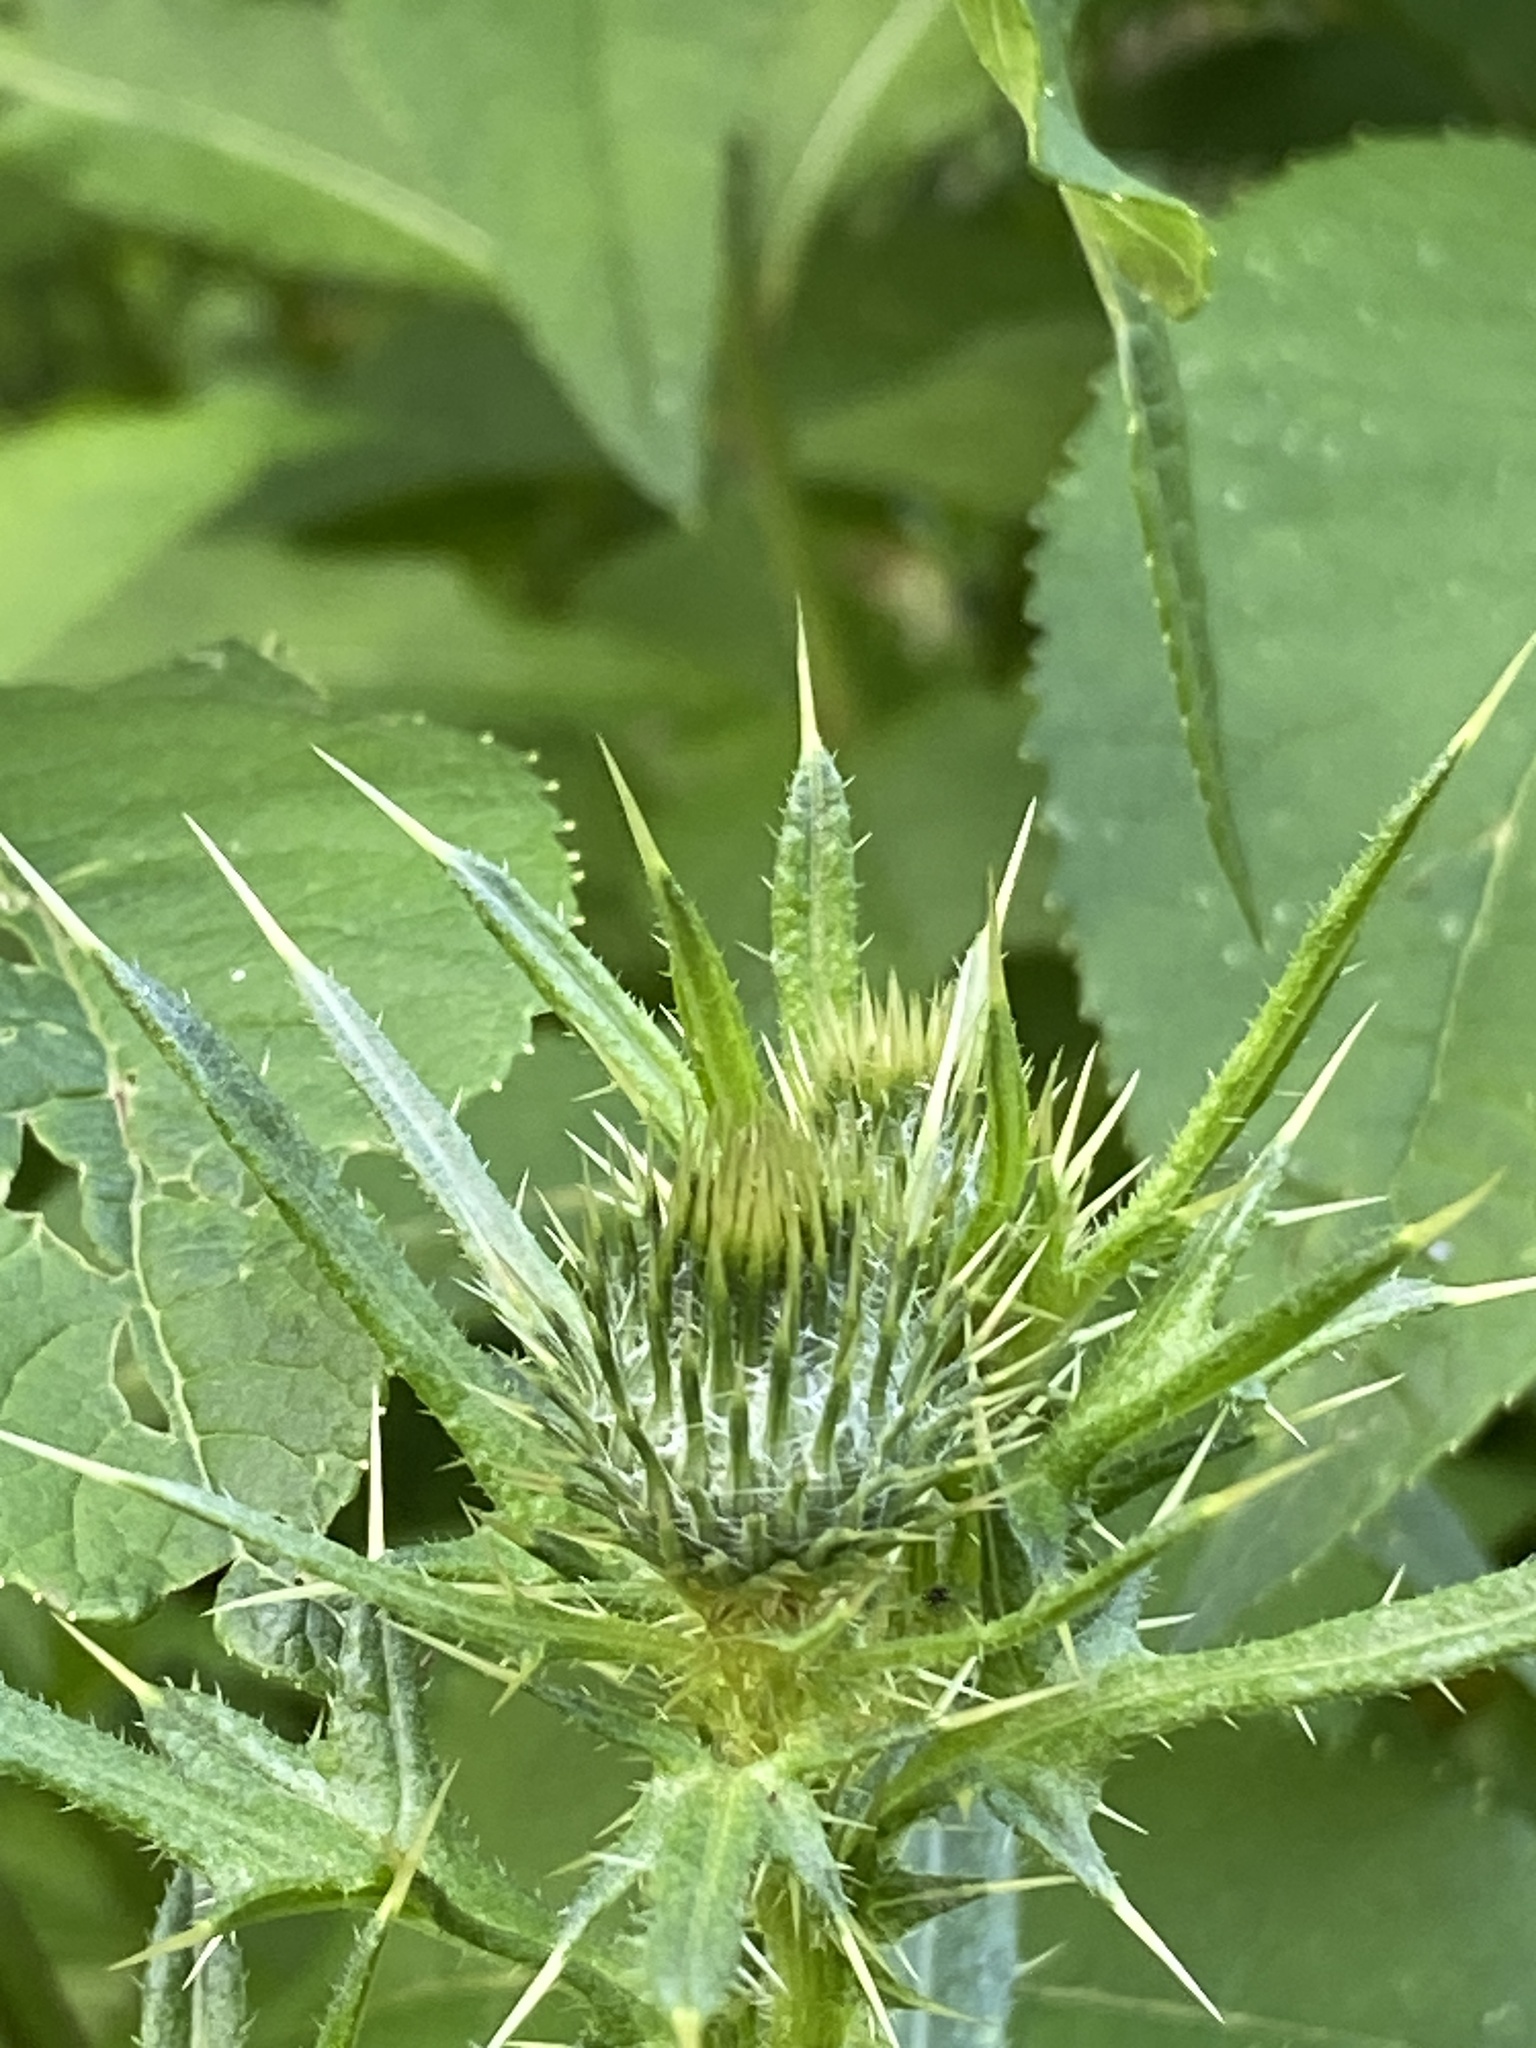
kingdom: Plantae
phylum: Tracheophyta
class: Magnoliopsida
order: Asterales
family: Asteraceae
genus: Cirsium
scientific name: Cirsium vulgare
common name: Bull thistle
